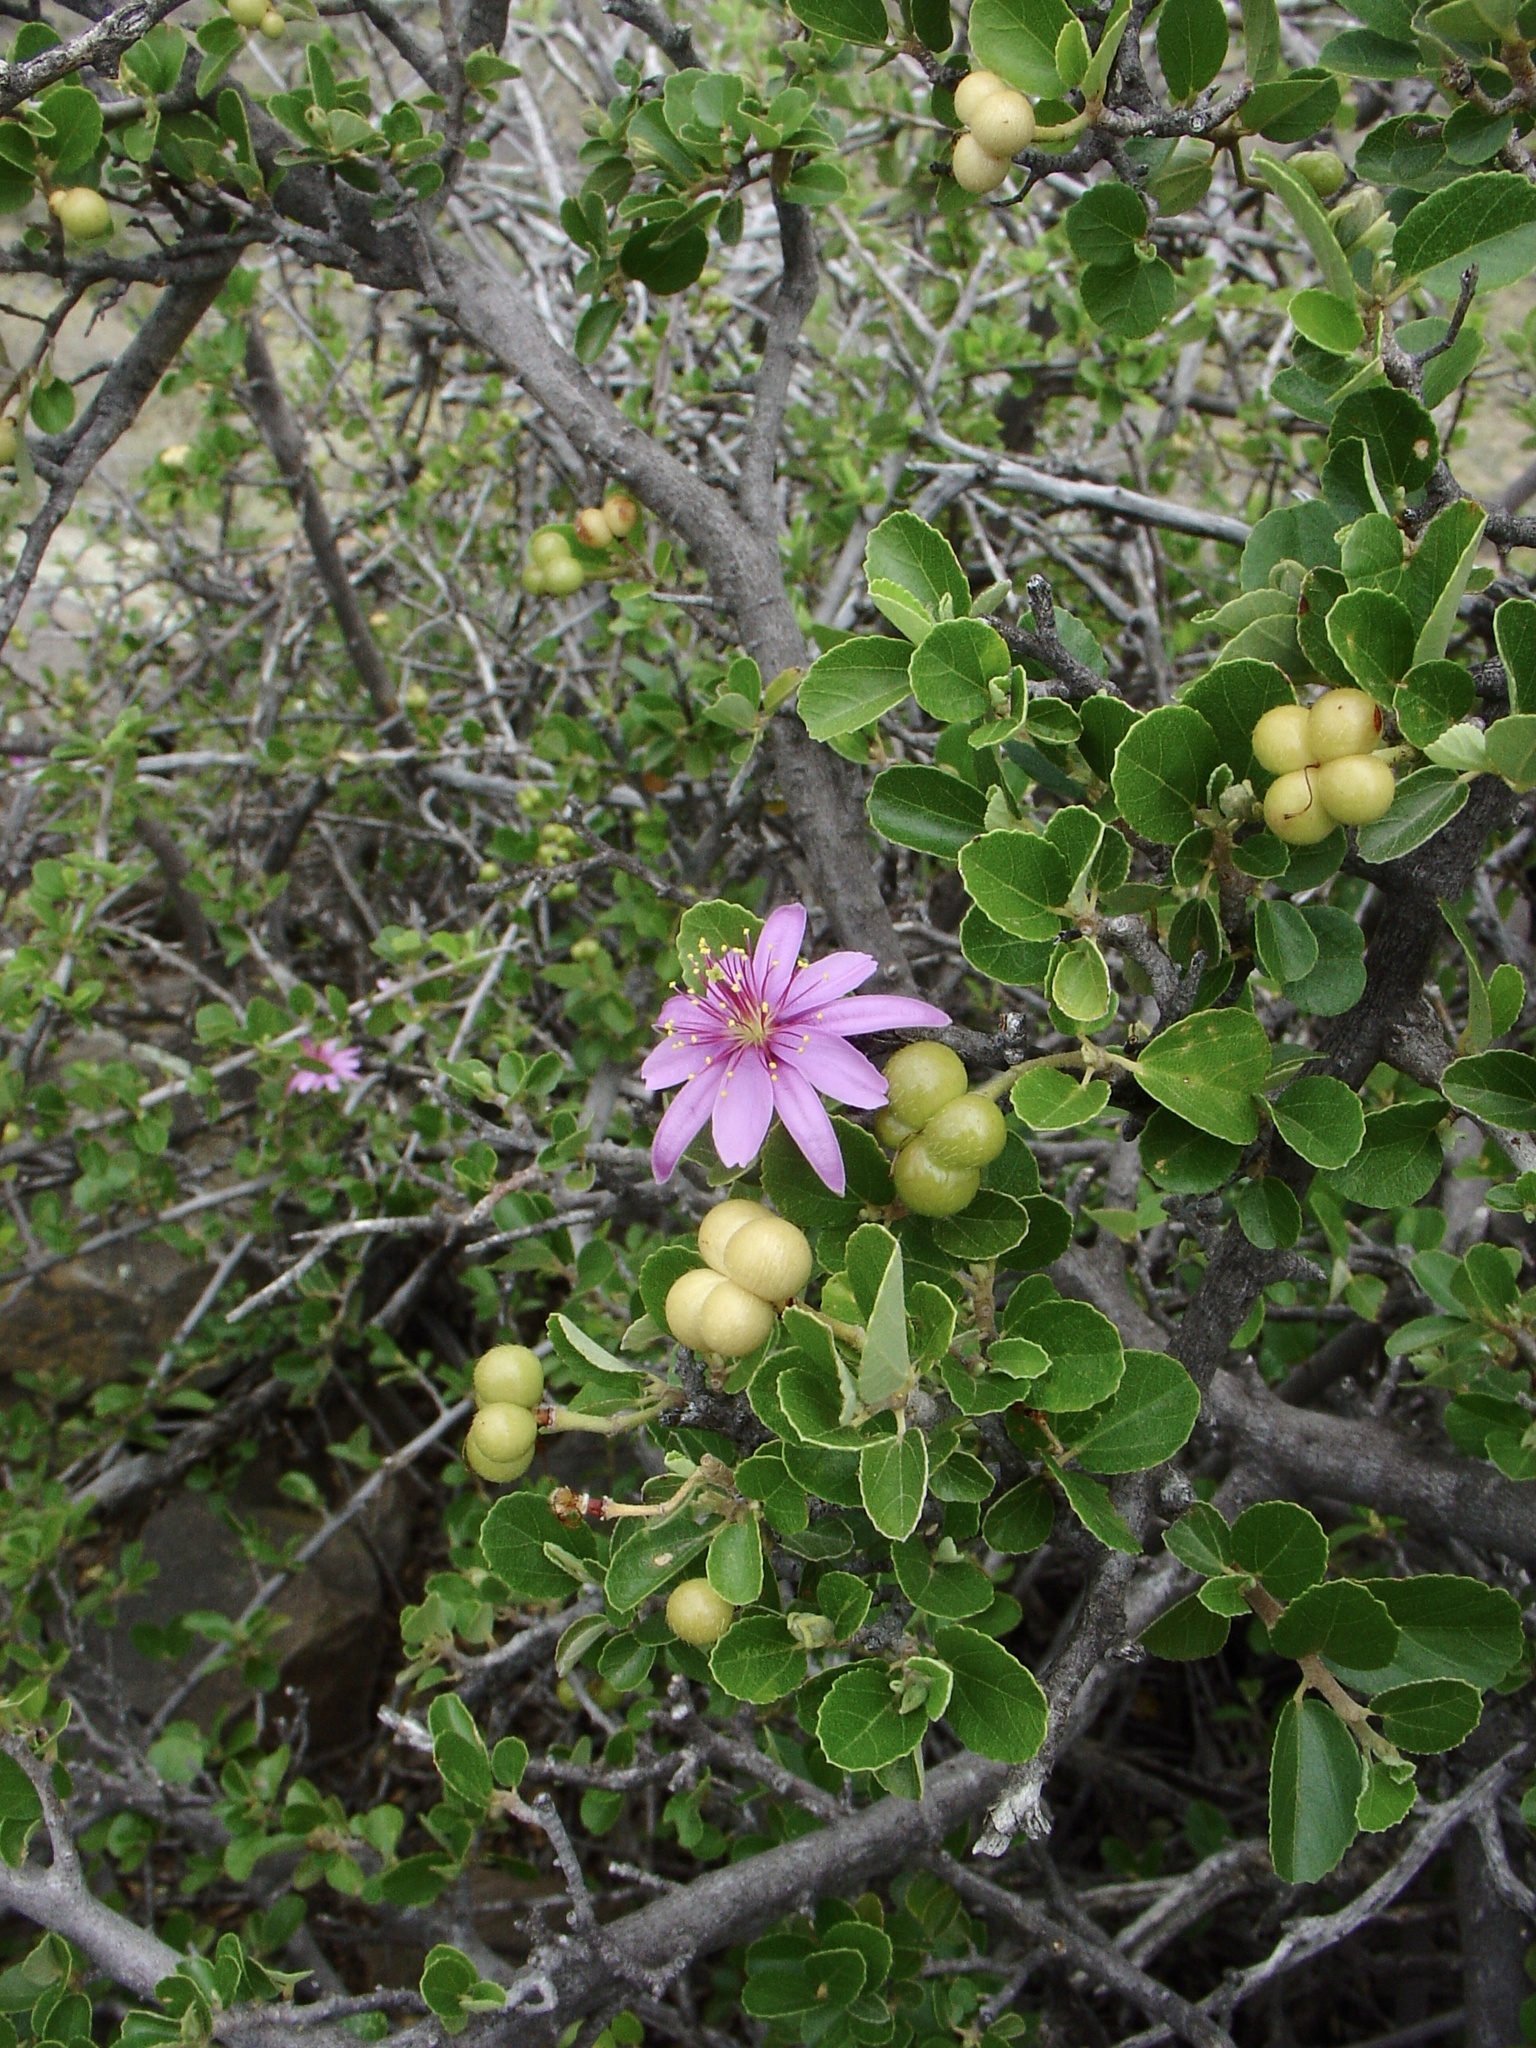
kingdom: Plantae
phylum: Tracheophyta
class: Magnoliopsida
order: Malvales
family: Malvaceae
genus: Grewia
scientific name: Grewia robusta
